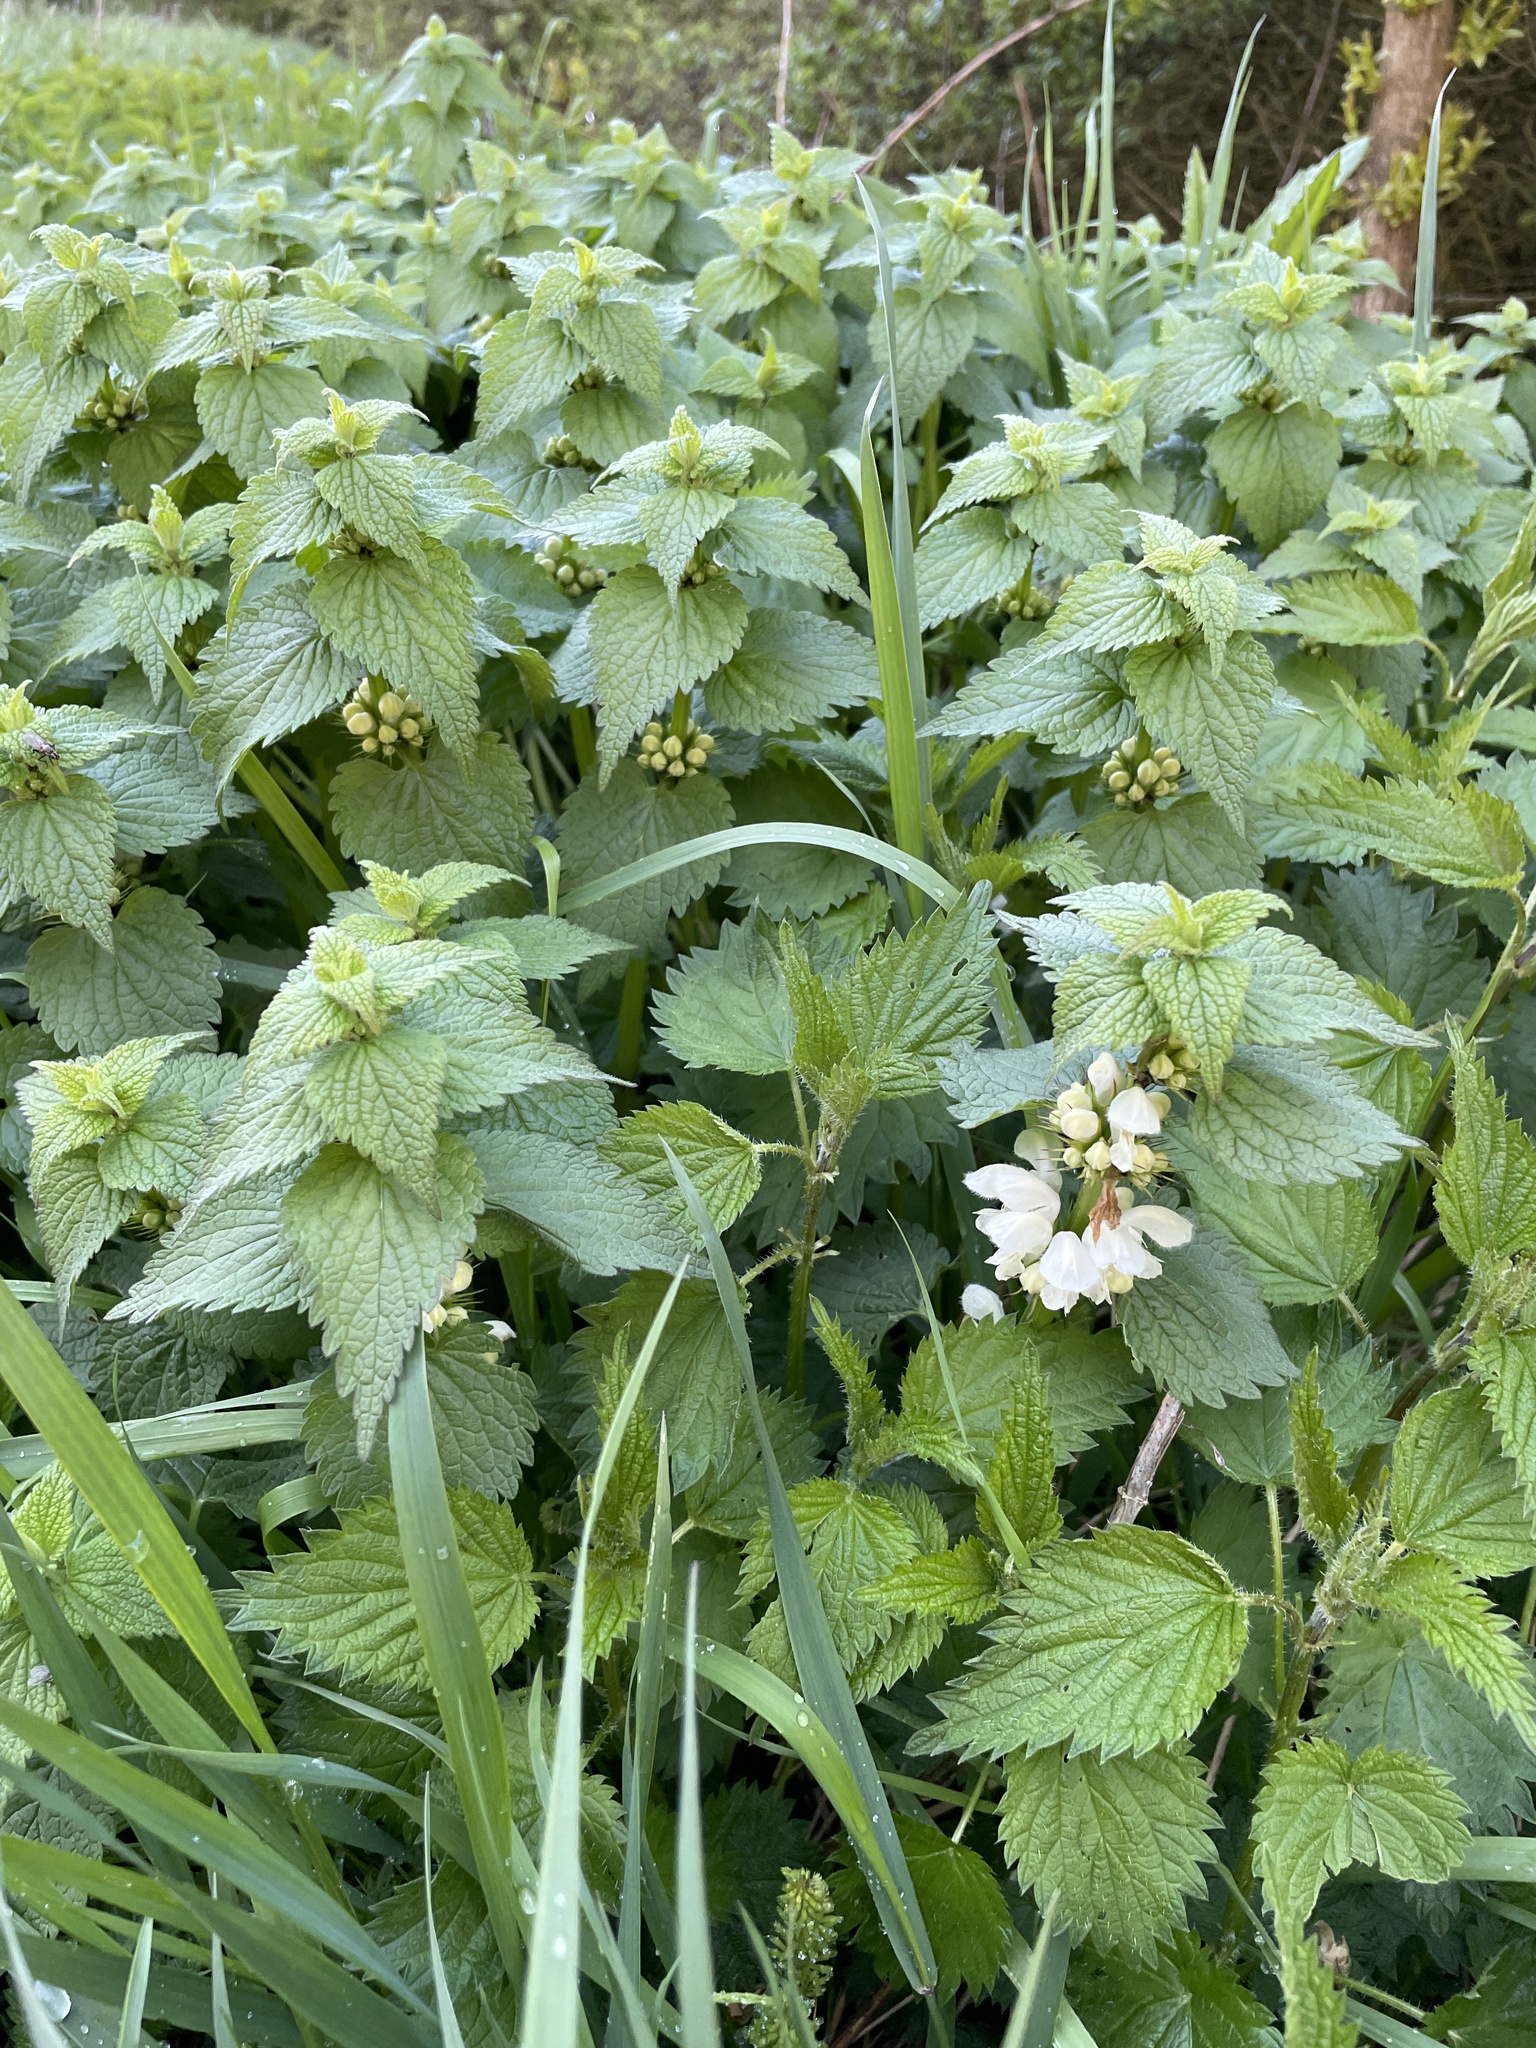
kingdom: Plantae
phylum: Tracheophyta
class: Magnoliopsida
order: Lamiales
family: Lamiaceae
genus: Lamium
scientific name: Lamium album
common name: White dead-nettle
